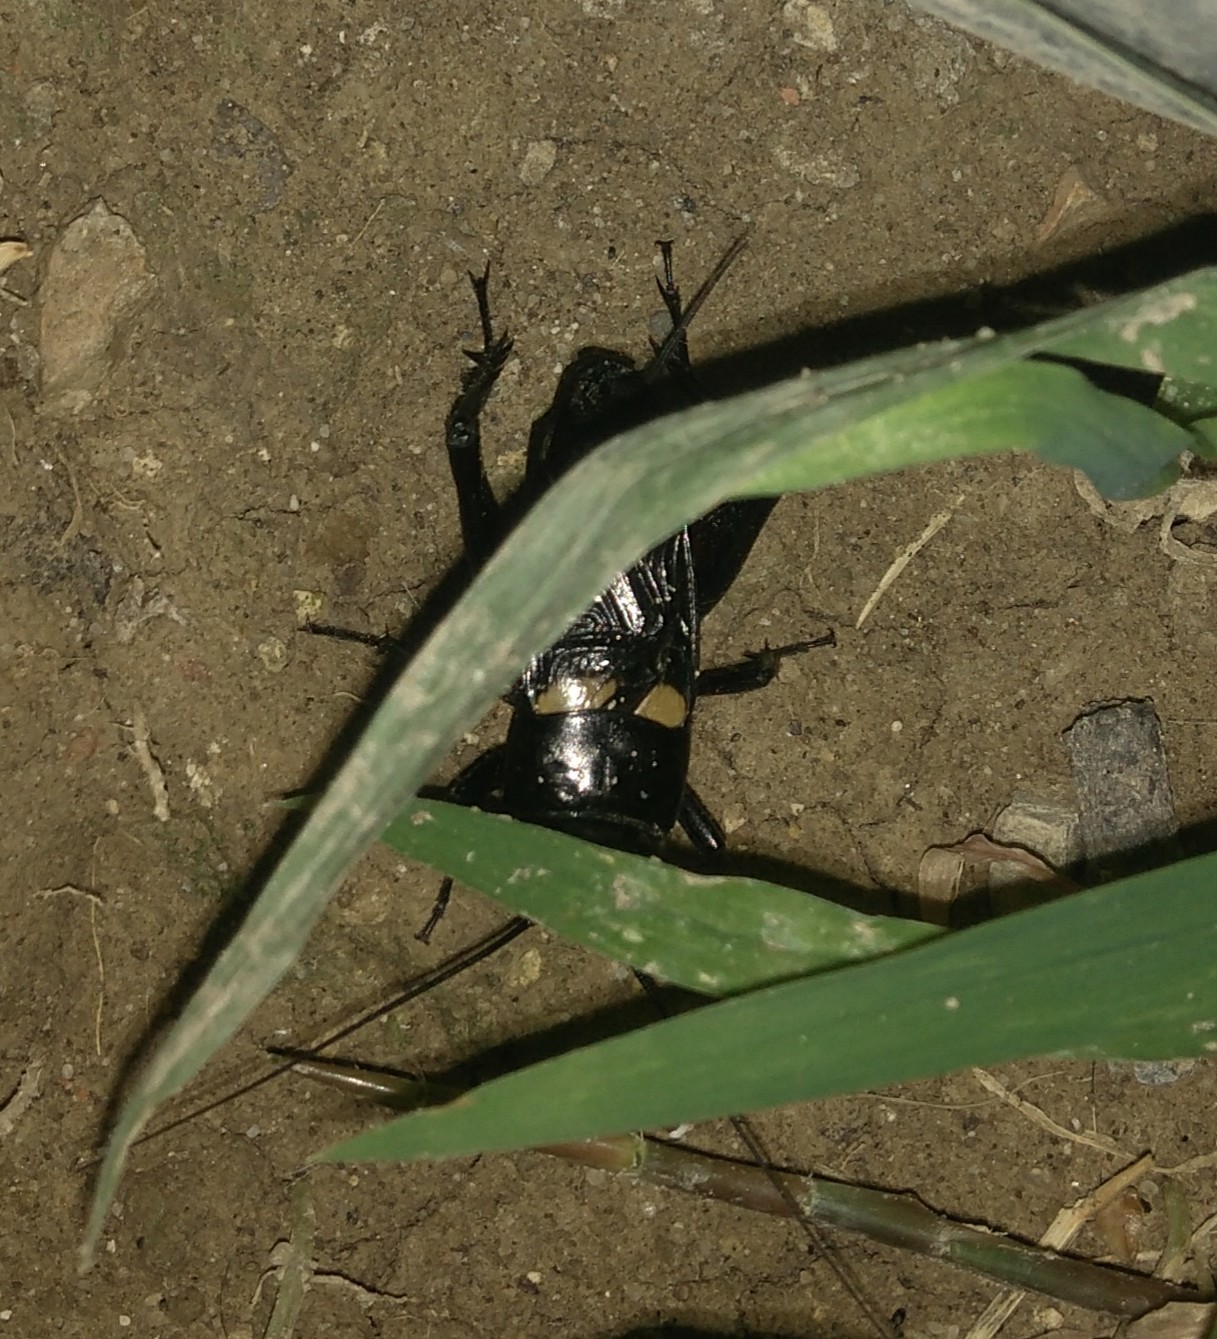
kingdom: Animalia
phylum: Arthropoda
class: Insecta
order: Orthoptera
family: Gryllidae
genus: Gryllus
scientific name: Gryllus bimaculatus
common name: Two-spotted cricket
